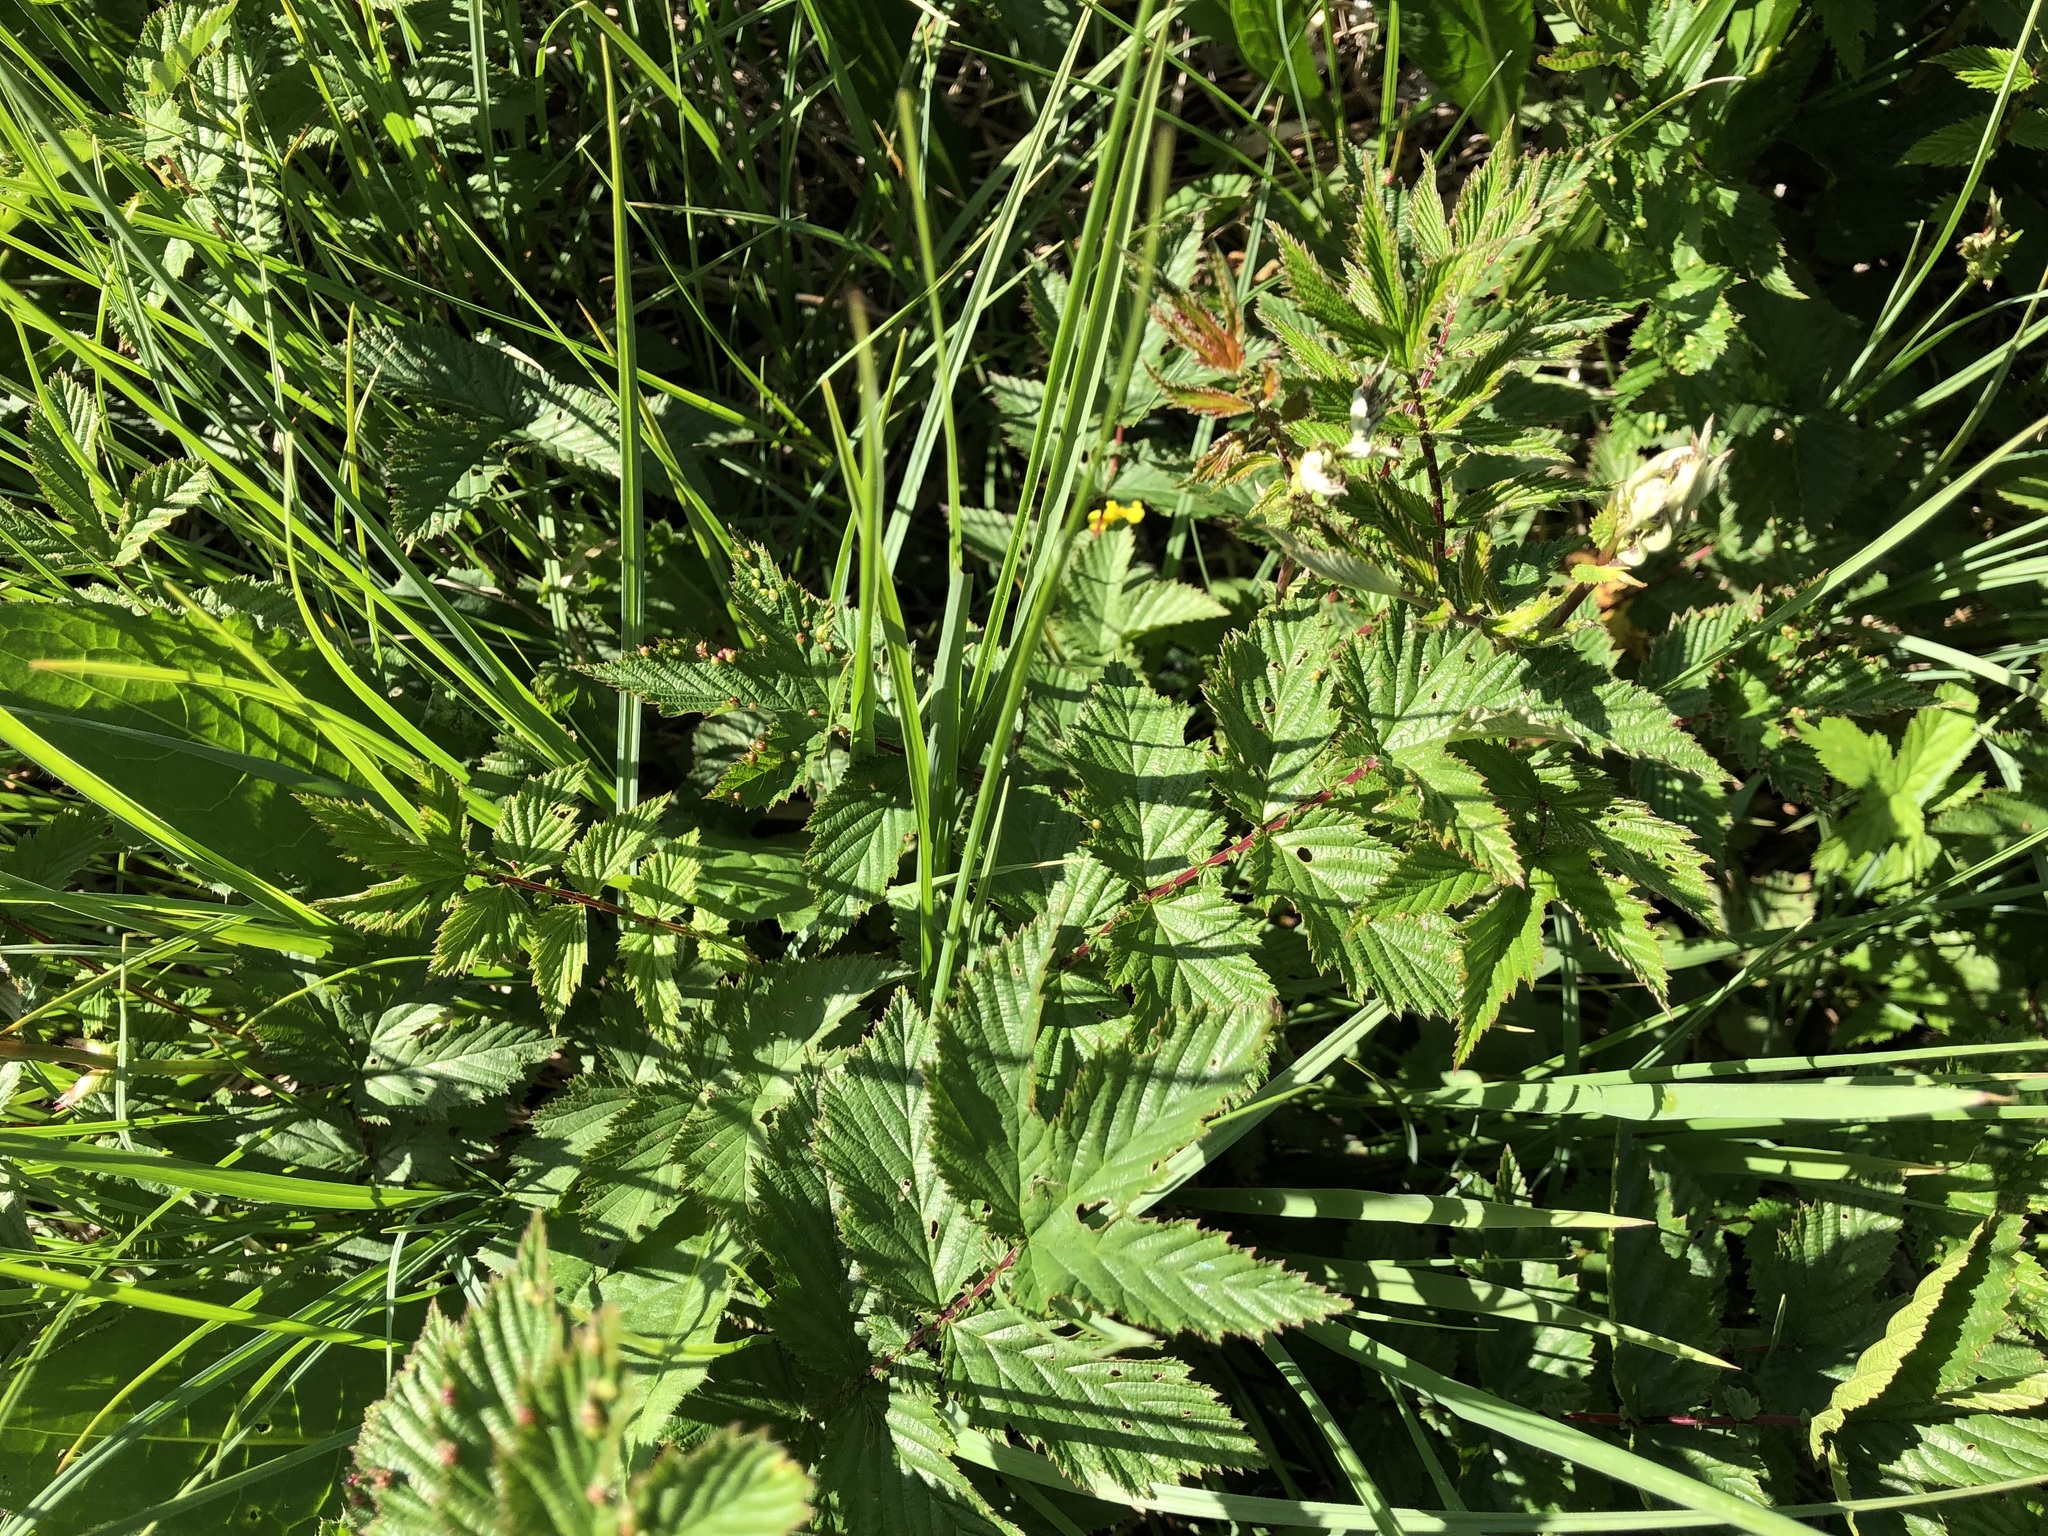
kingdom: Plantae
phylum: Tracheophyta
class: Magnoliopsida
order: Rosales
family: Rosaceae
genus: Filipendula
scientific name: Filipendula ulmaria
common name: Meadowsweet
